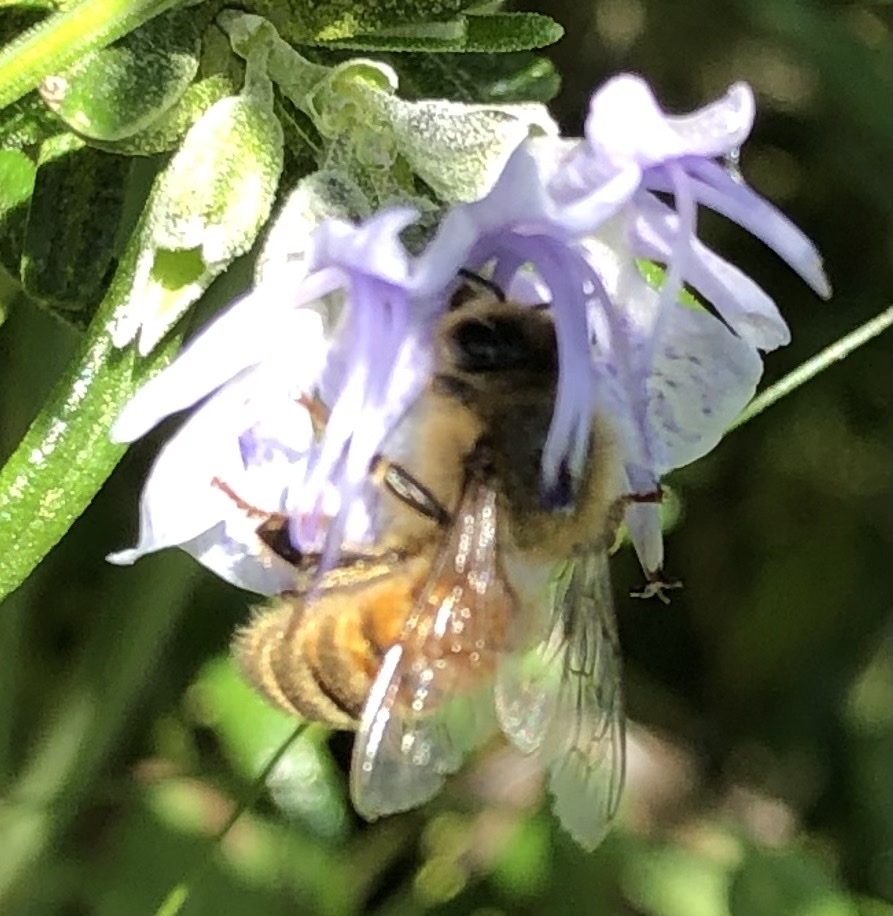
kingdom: Animalia
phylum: Arthropoda
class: Insecta
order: Hymenoptera
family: Apidae
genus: Apis
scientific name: Apis mellifera
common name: Honey bee
